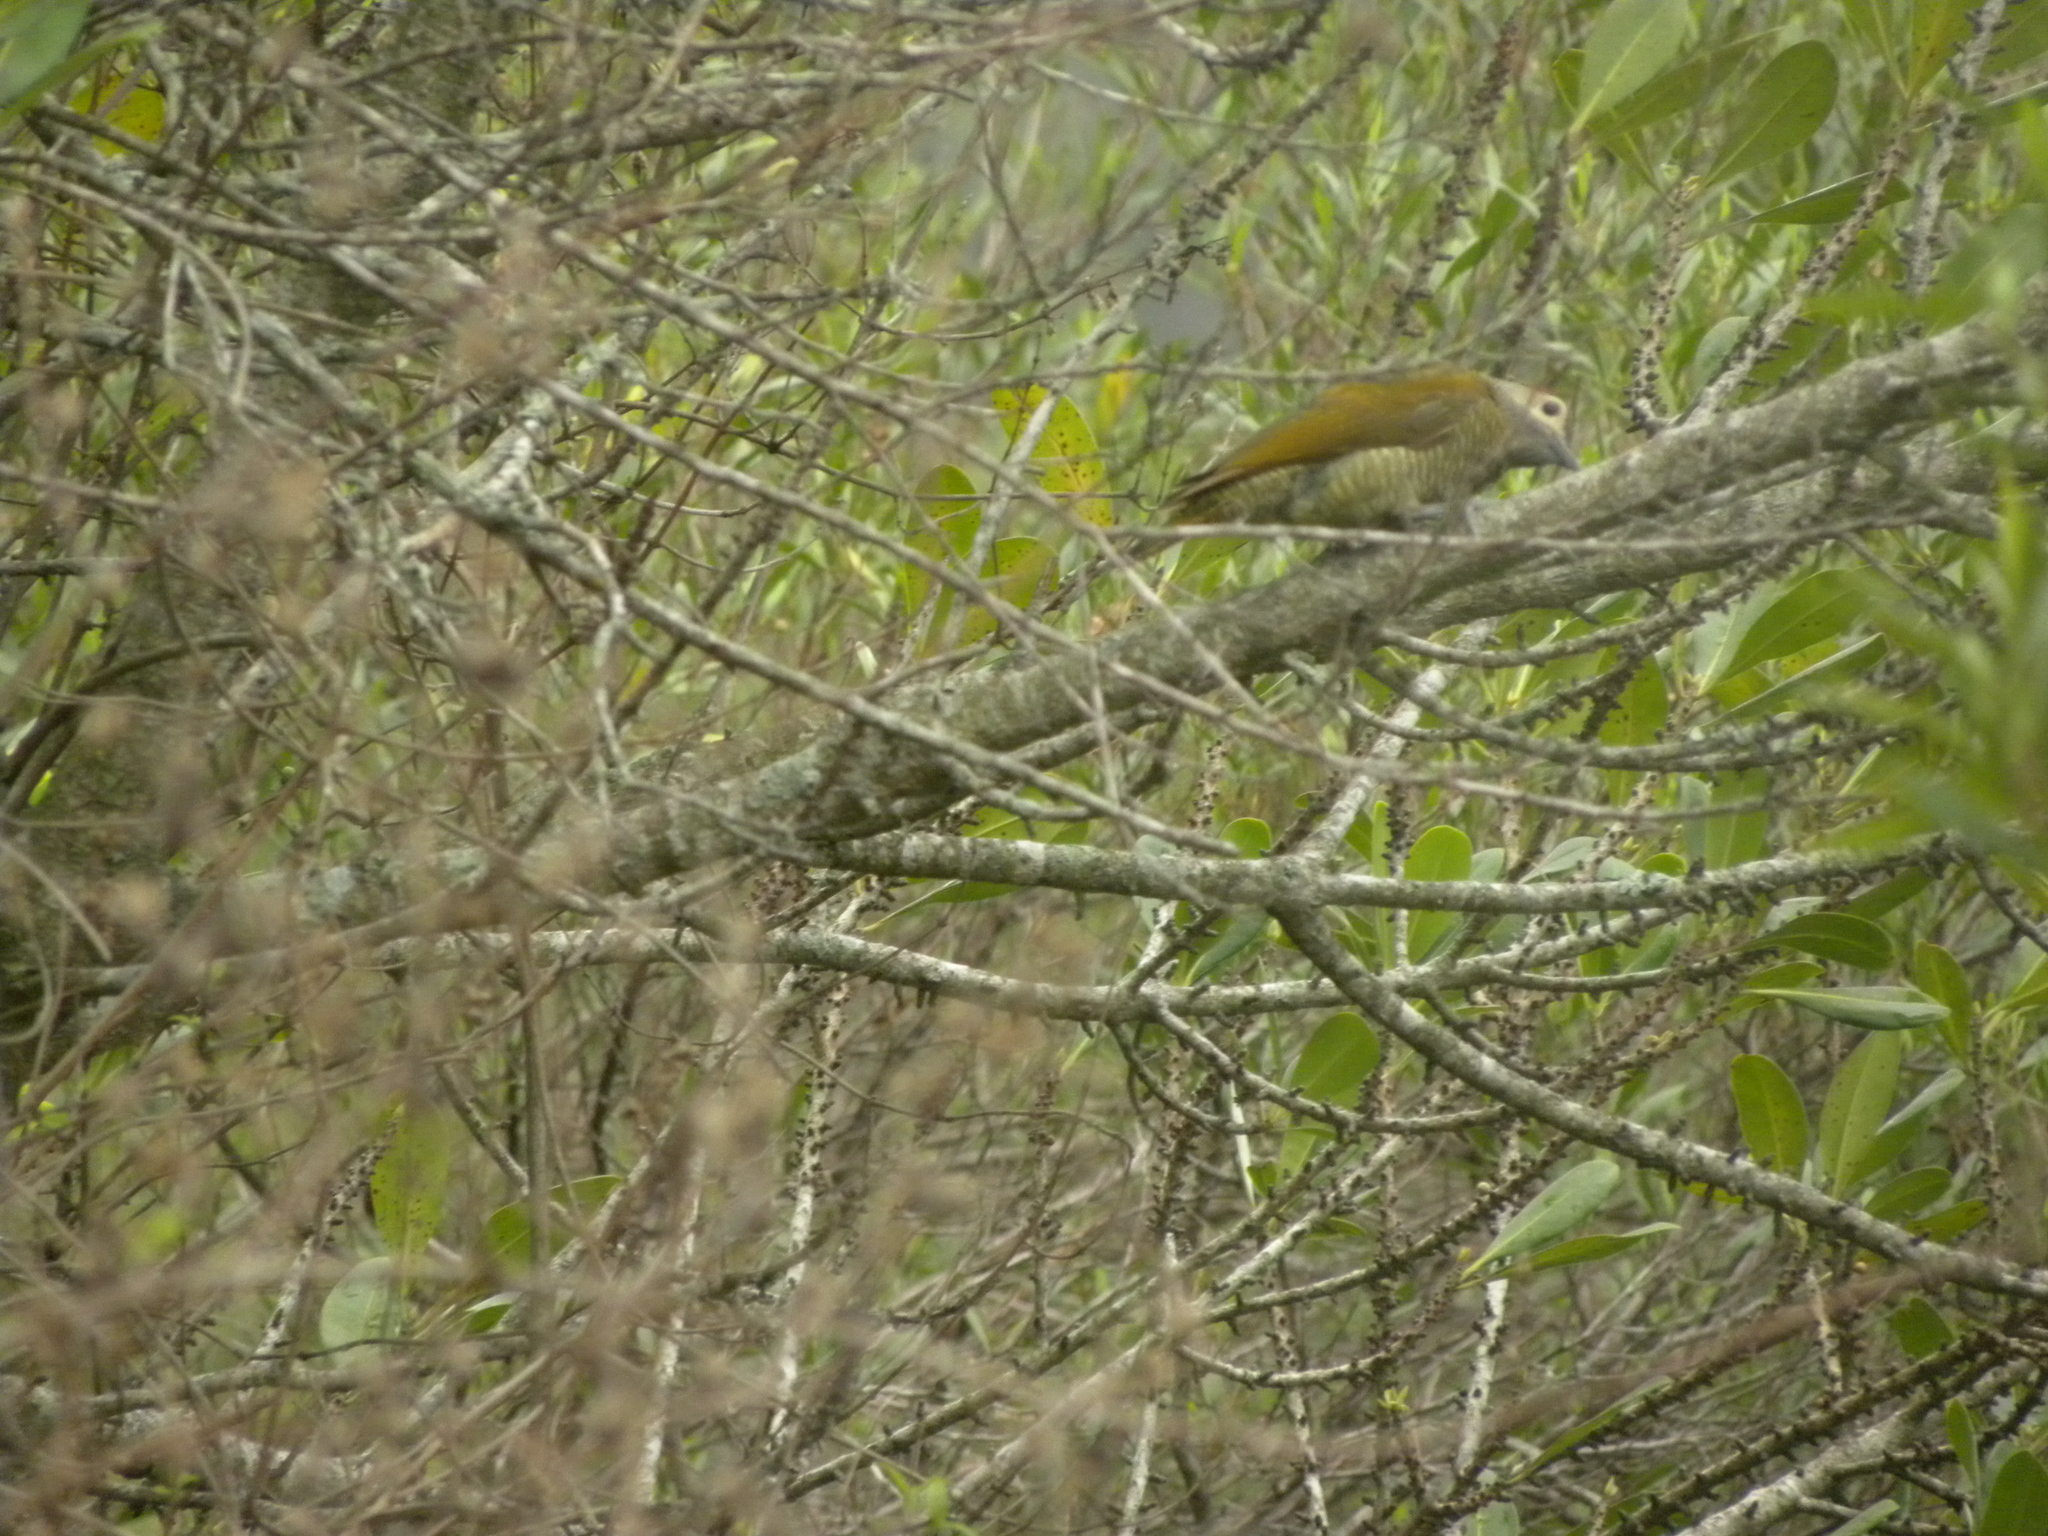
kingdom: Animalia
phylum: Chordata
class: Aves
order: Piciformes
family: Picidae
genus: Colaptes
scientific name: Colaptes rubiginosus
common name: Golden-olive woodpecker
